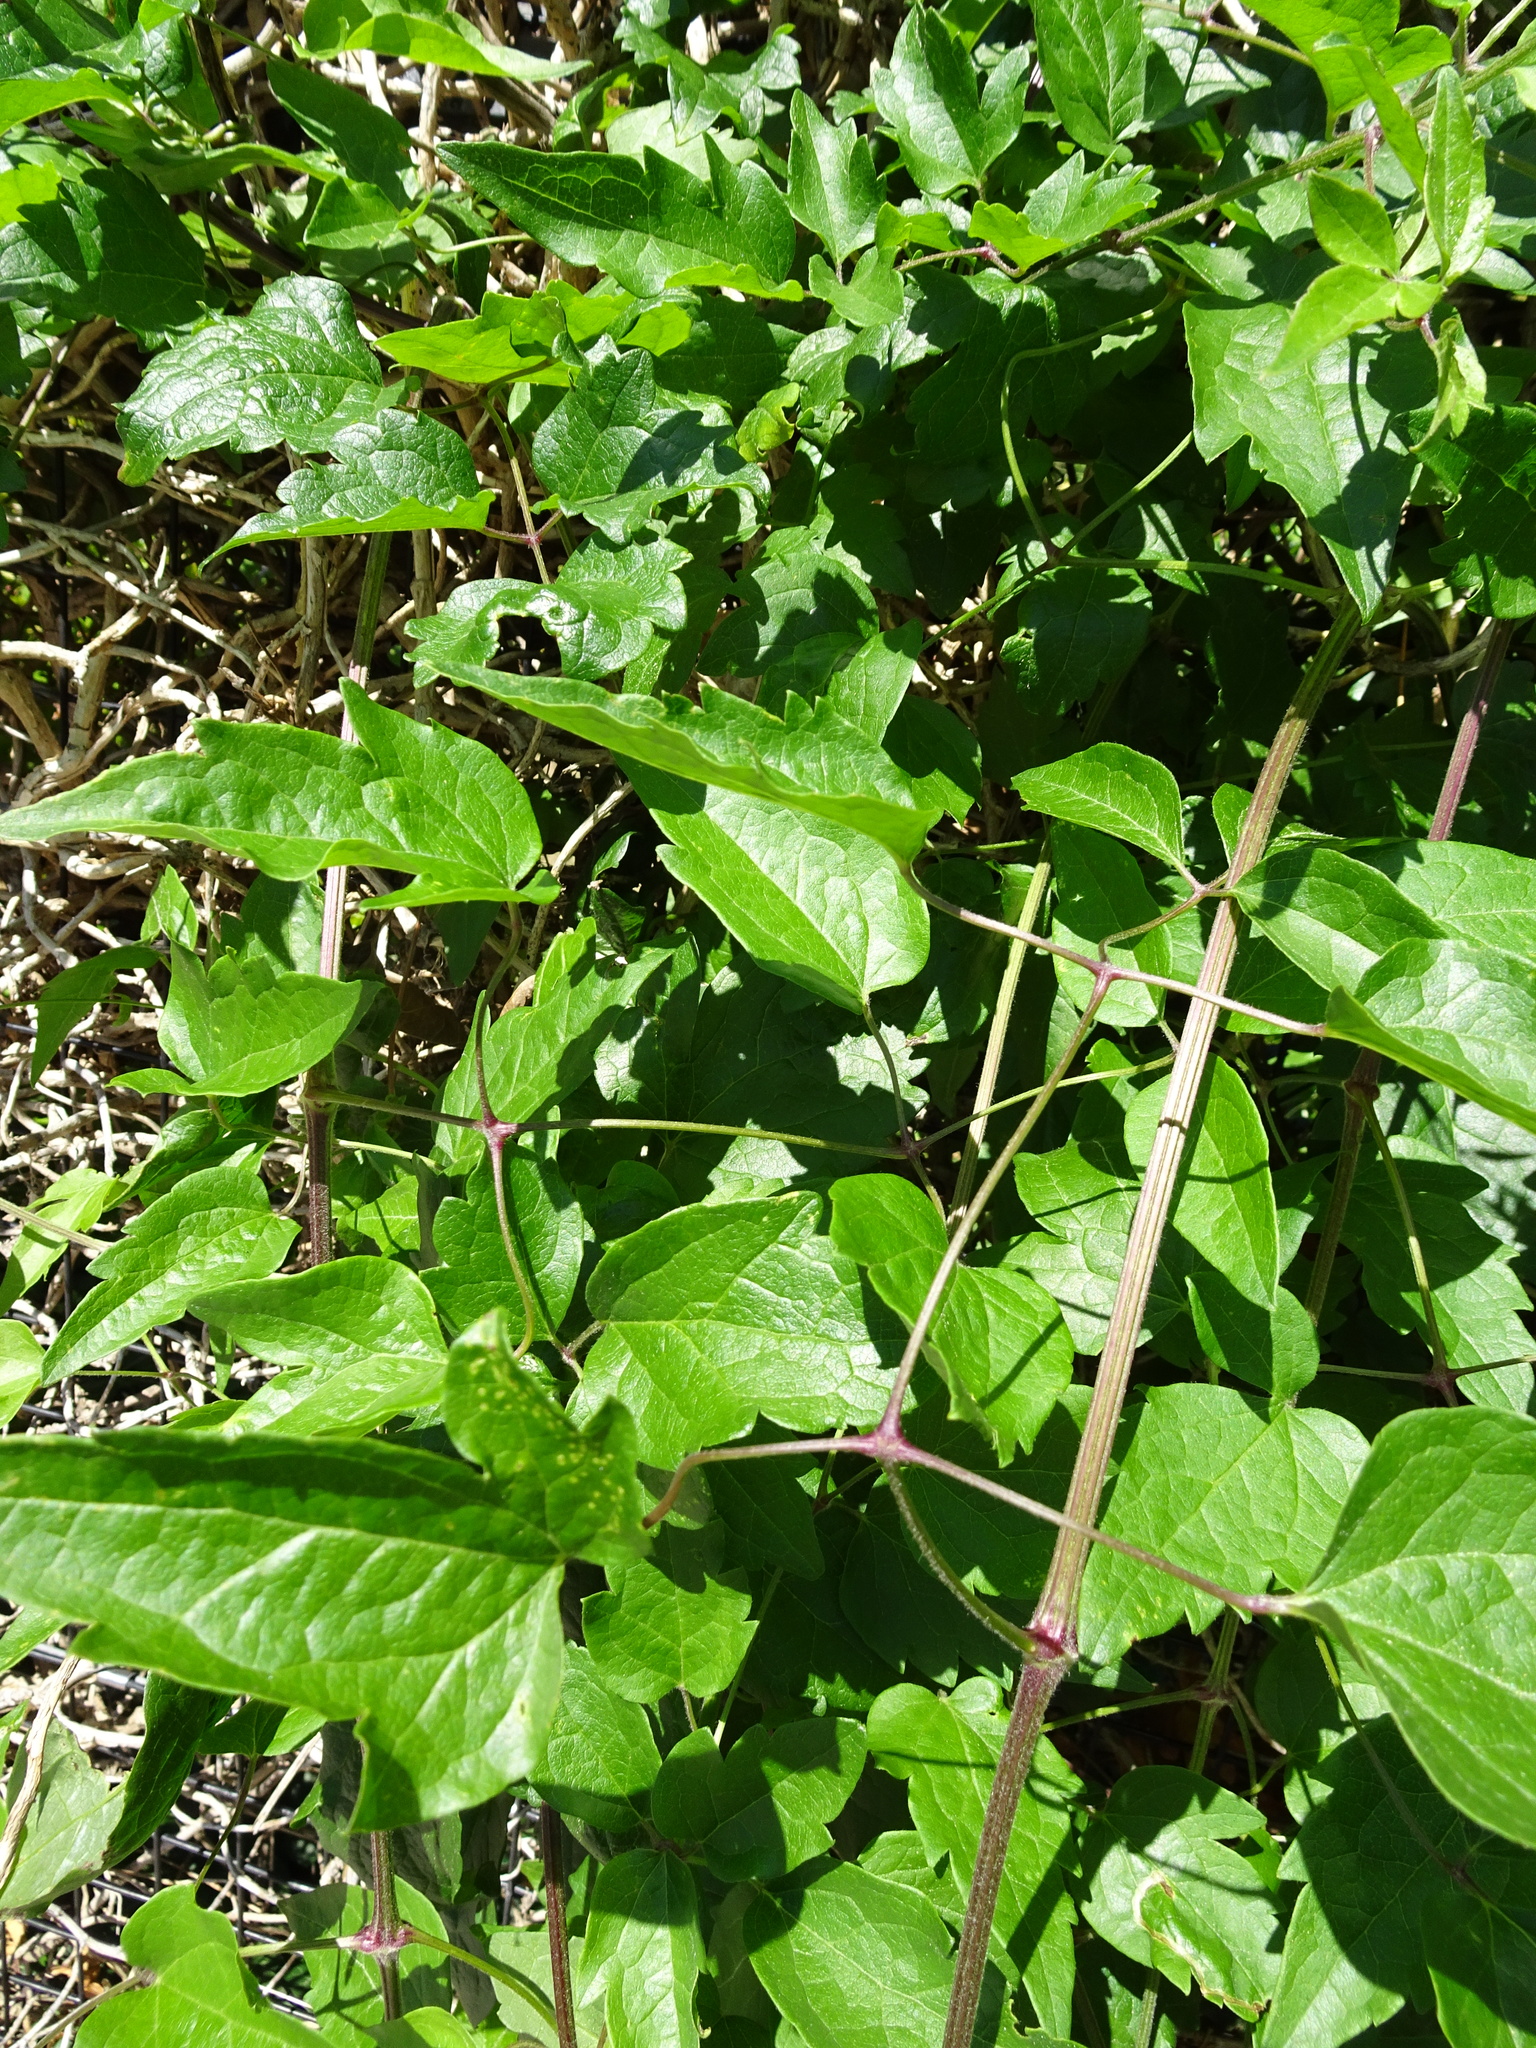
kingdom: Plantae
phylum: Tracheophyta
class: Magnoliopsida
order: Ranunculales
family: Ranunculaceae
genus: Clematis
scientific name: Clematis vitalba
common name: Evergreen clematis
